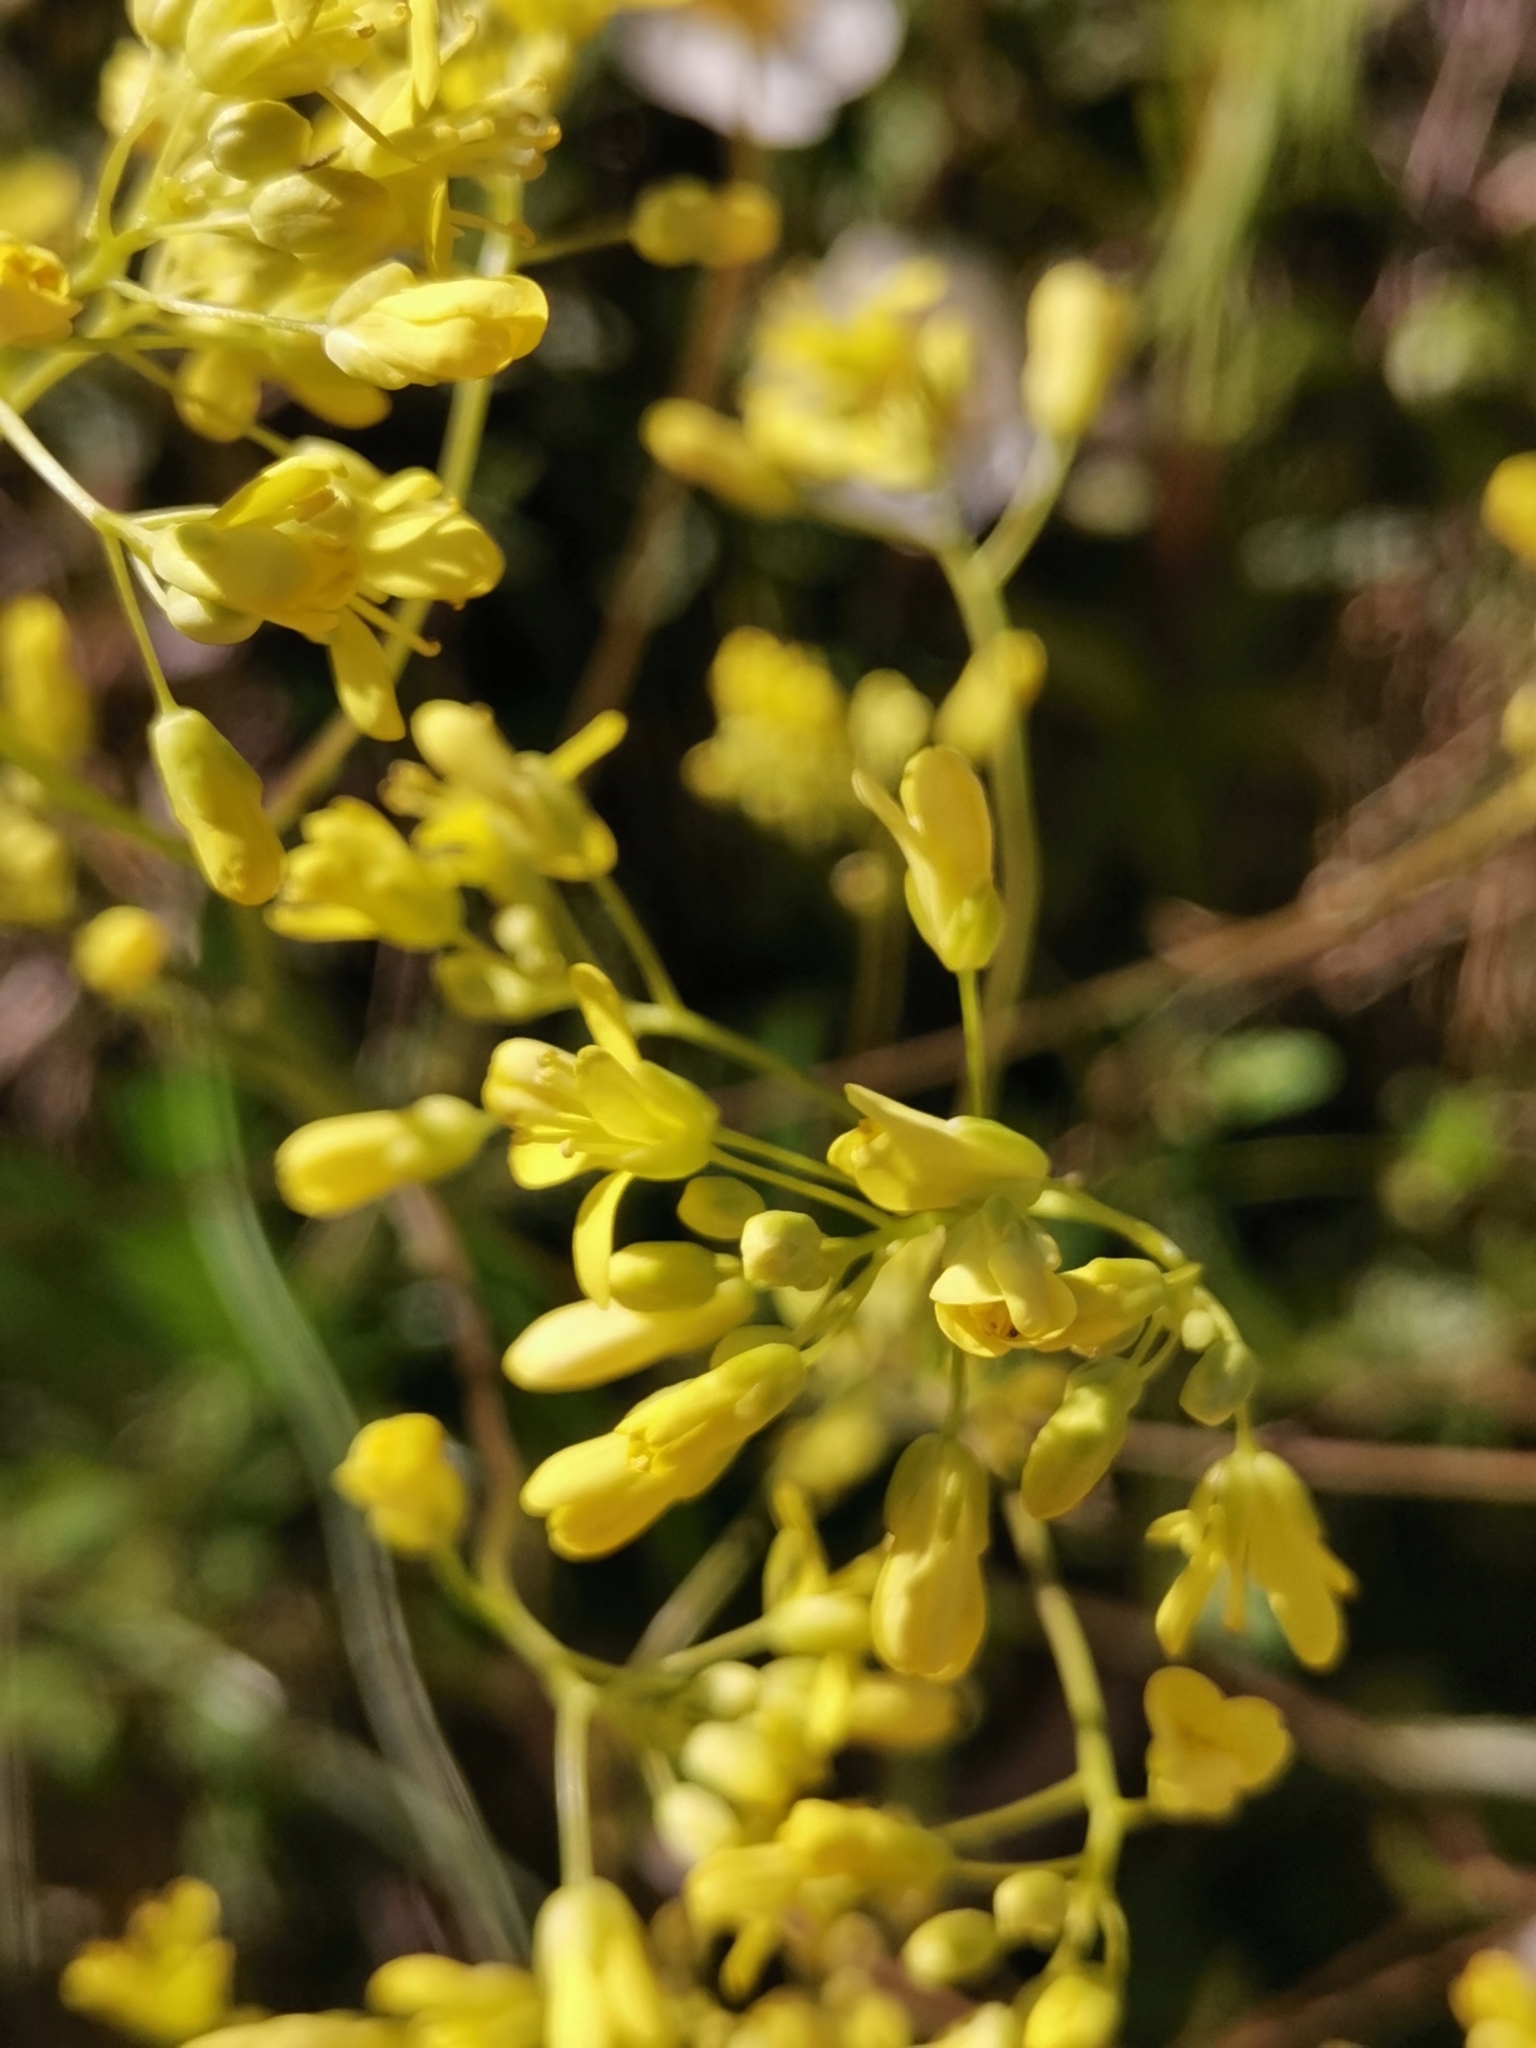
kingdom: Plantae
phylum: Tracheophyta
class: Magnoliopsida
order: Brassicales
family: Brassicaceae
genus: Biscutella
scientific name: Biscutella laevigata
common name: Buckler mustard
